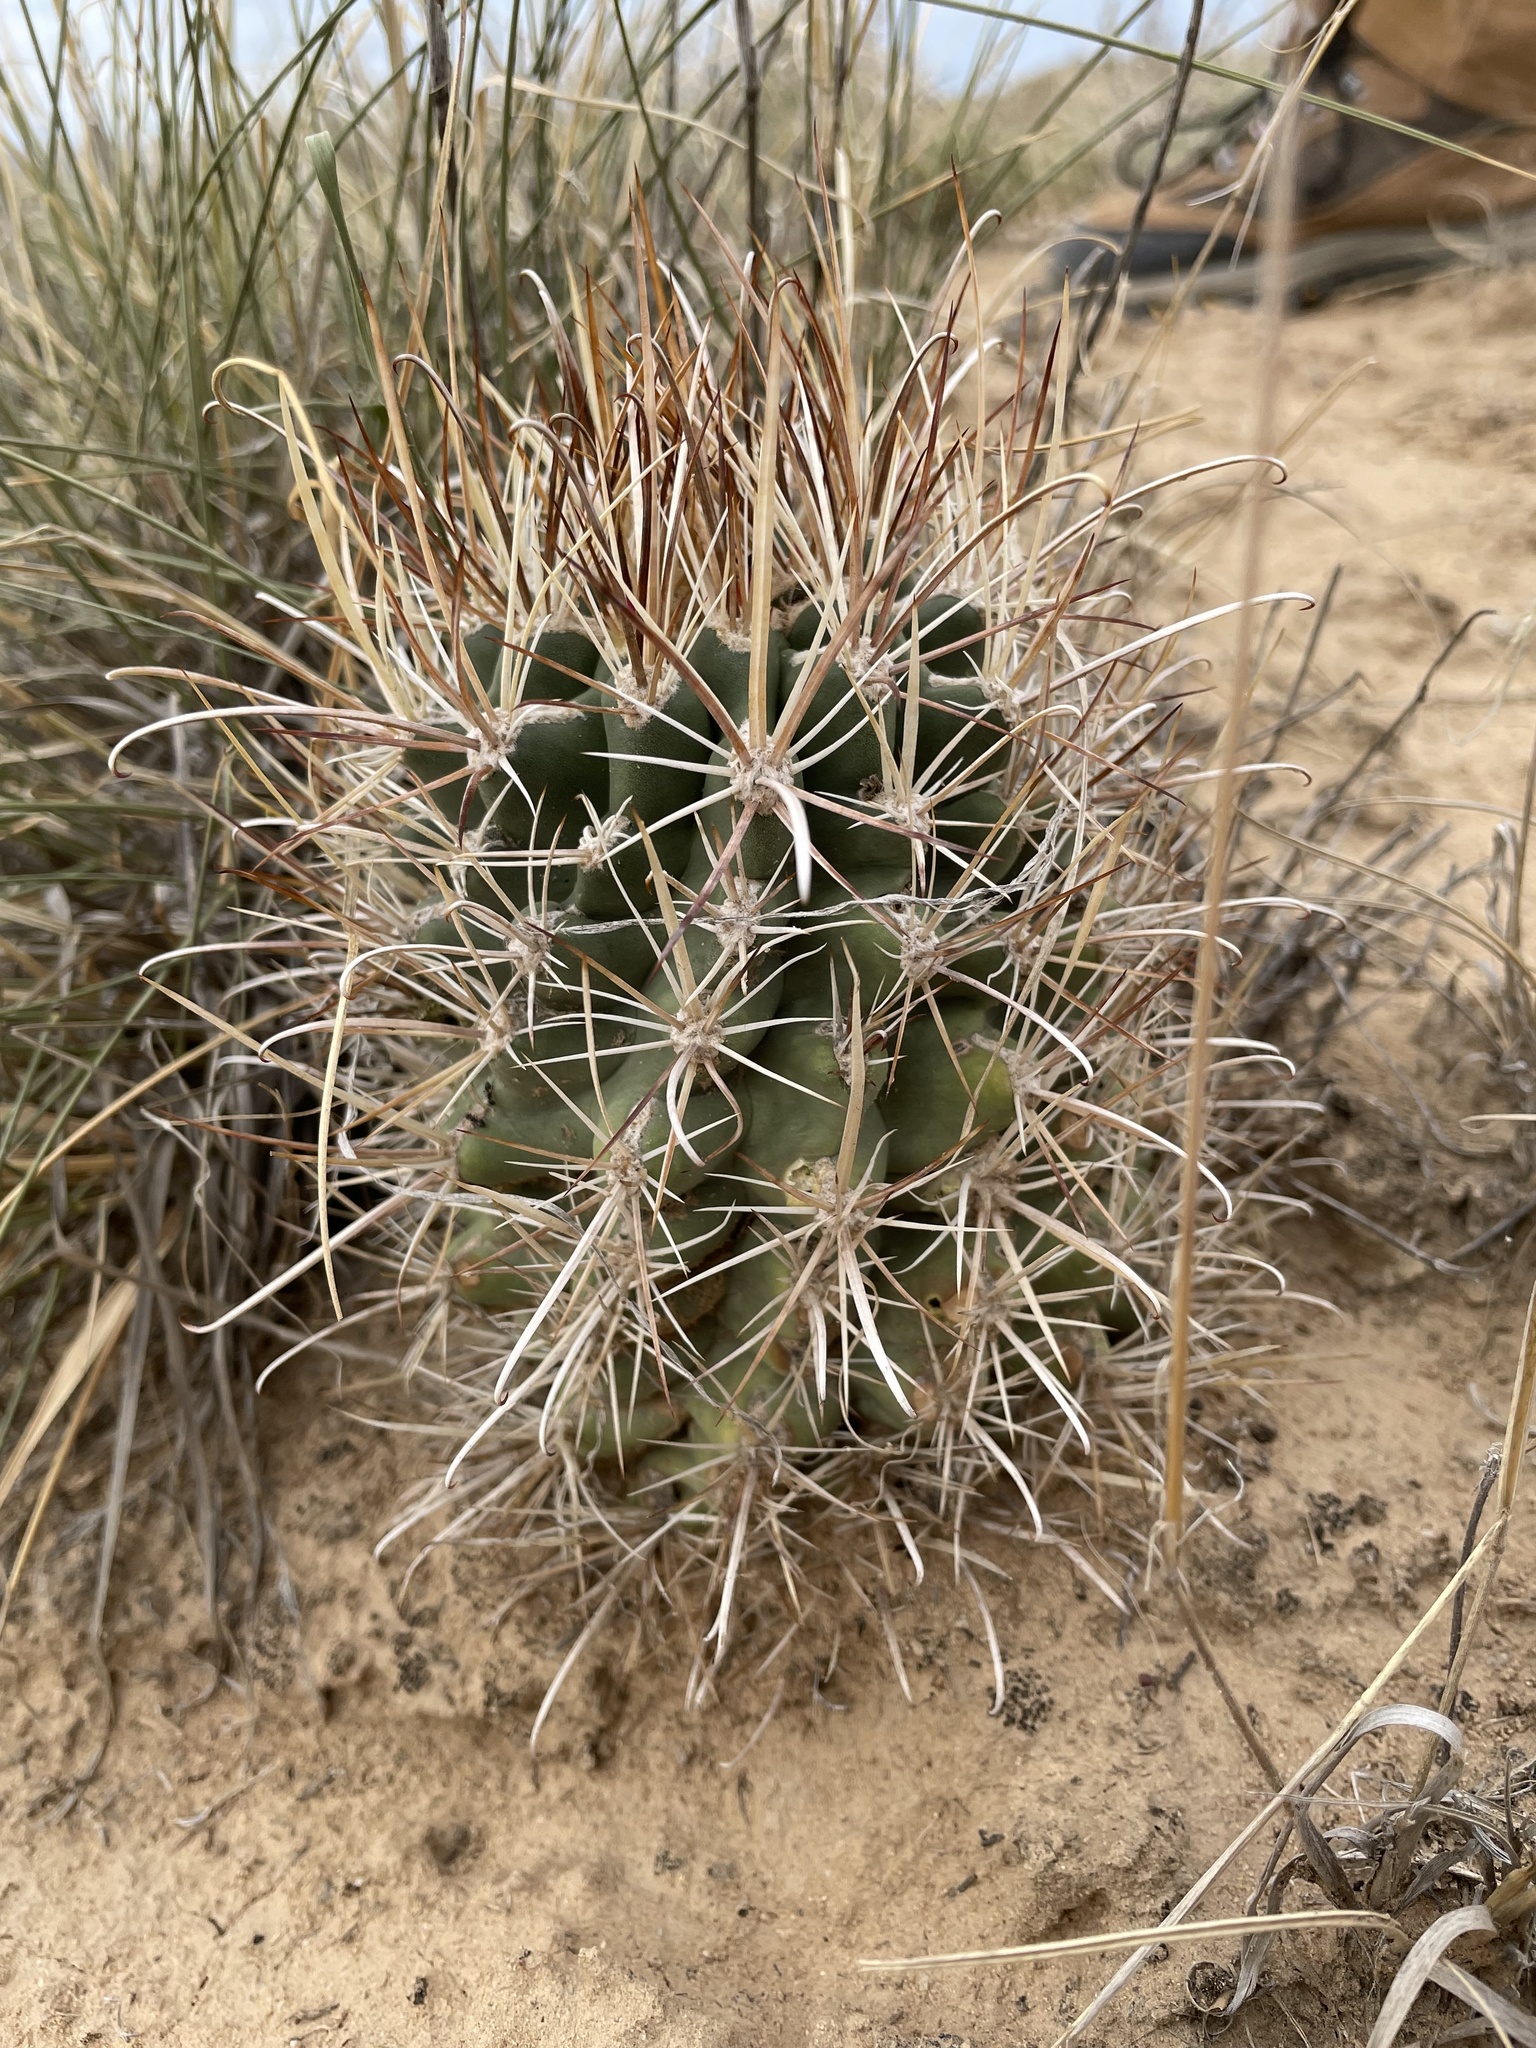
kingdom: Plantae
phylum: Tracheophyta
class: Magnoliopsida
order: Caryophyllales
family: Cactaceae
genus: Sclerocactus
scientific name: Sclerocactus parviflorus
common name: Small-flower fishhook cactus
